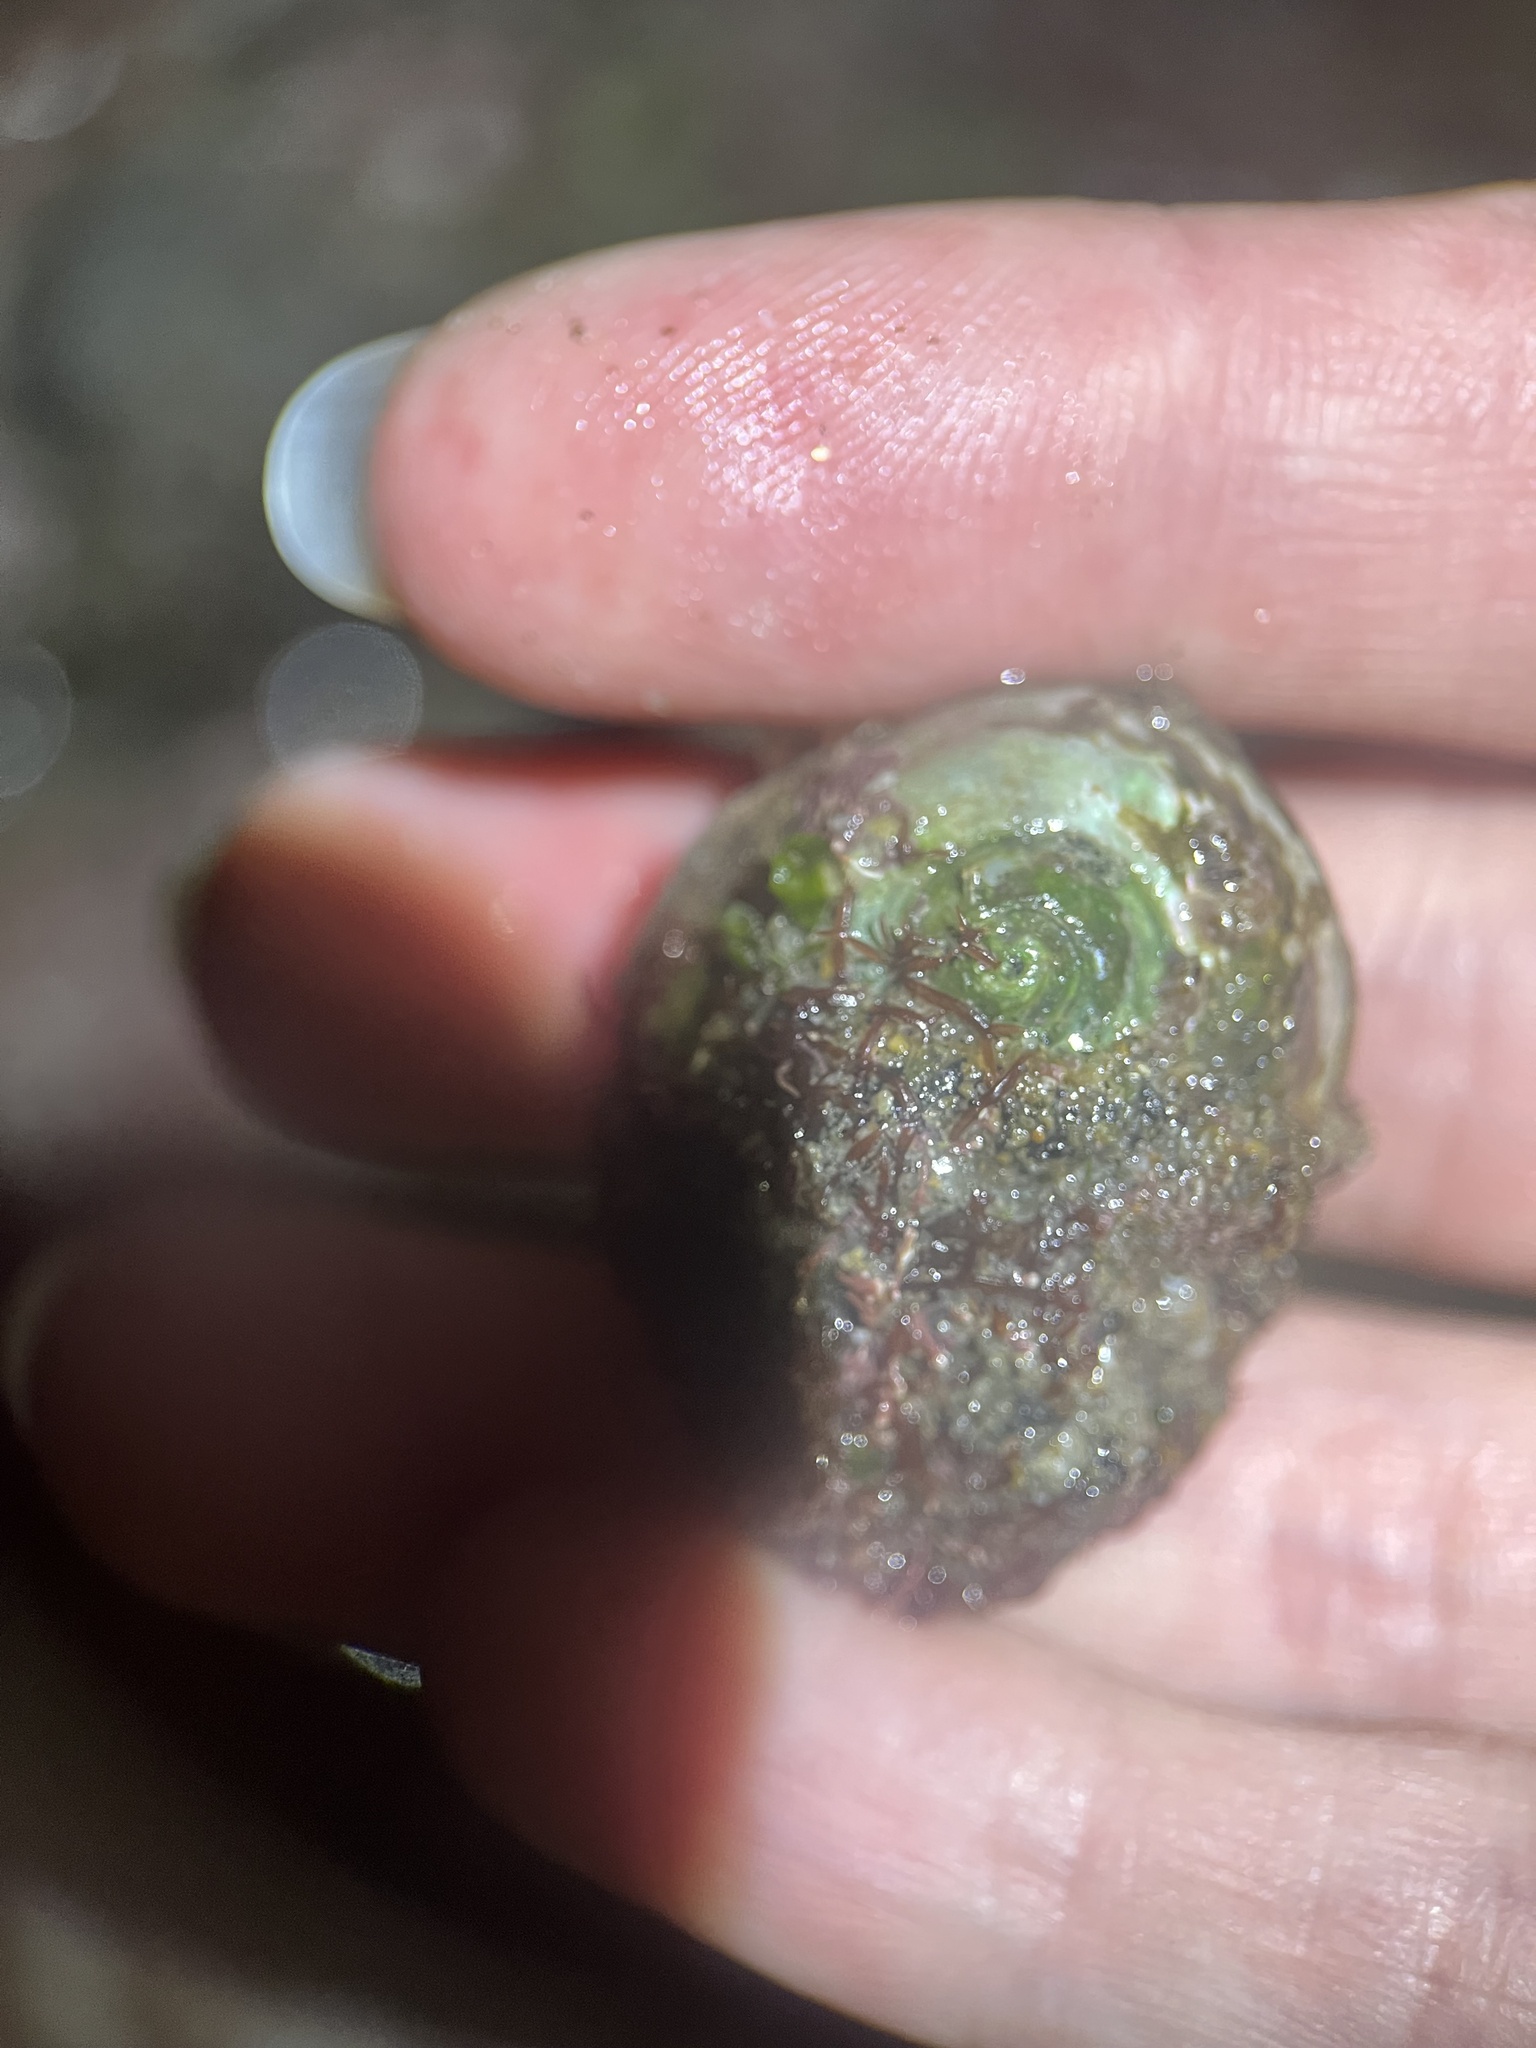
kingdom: Animalia
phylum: Mollusca
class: Gastropoda
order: Trochida
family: Tegulidae
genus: Tegula
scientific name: Tegula aureotincta
